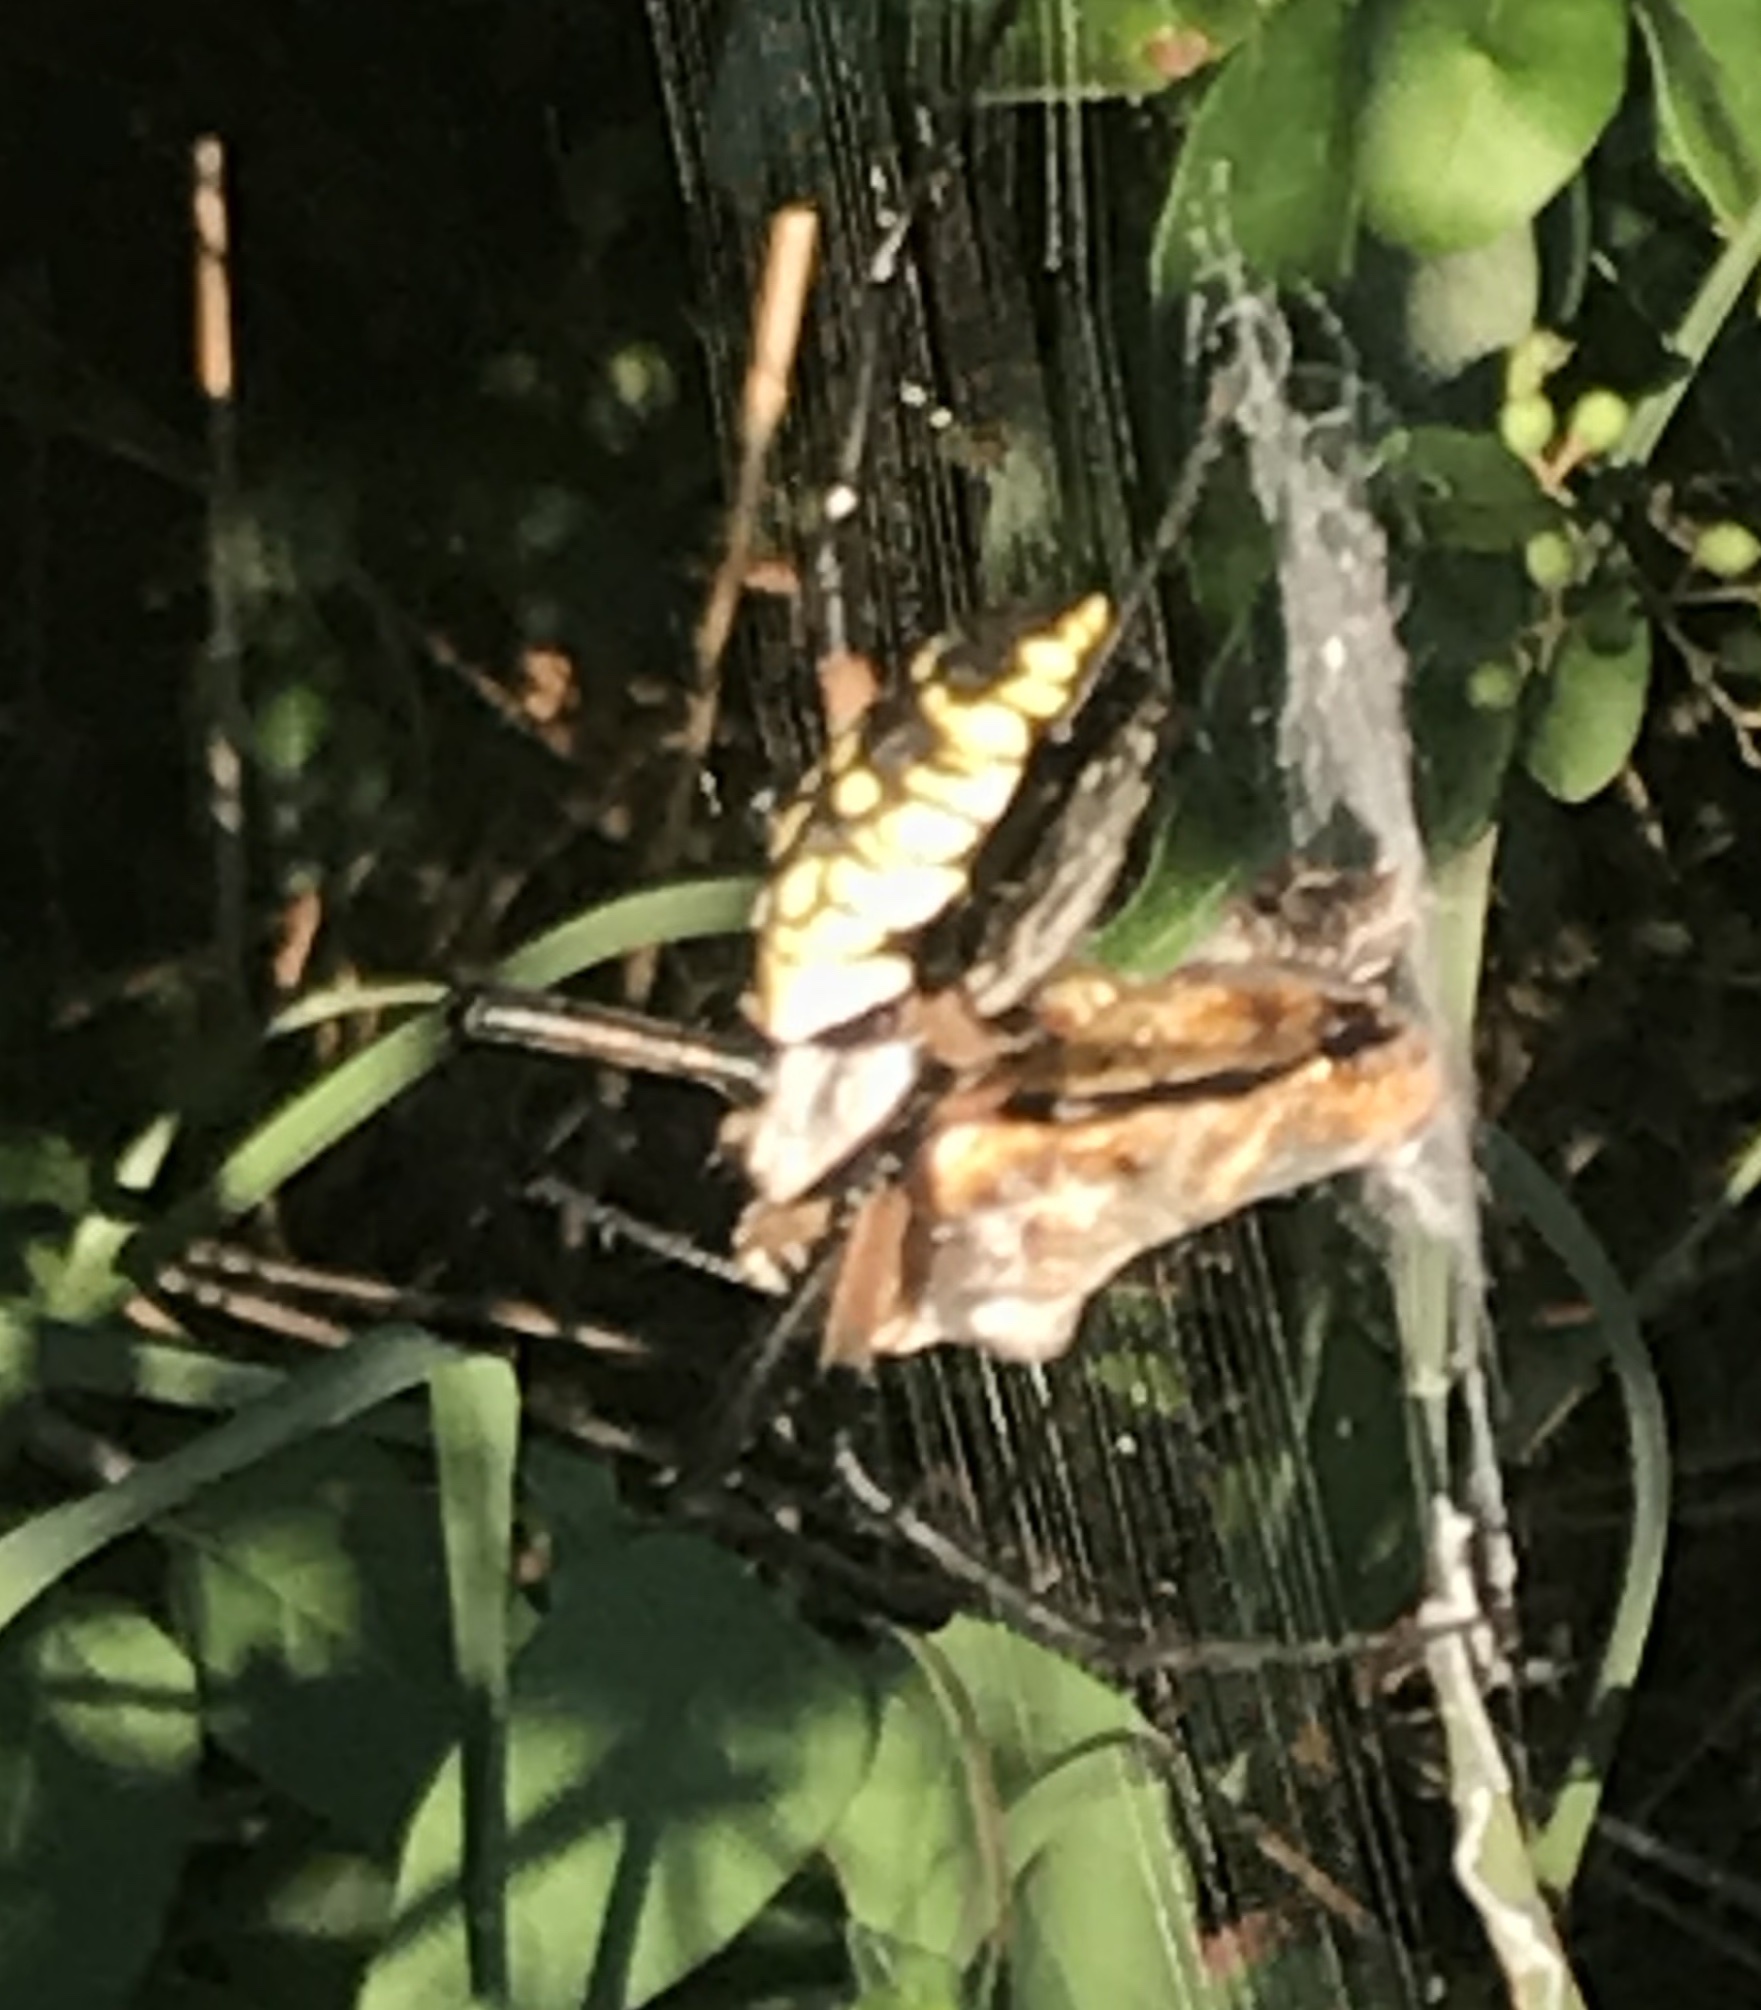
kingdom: Animalia
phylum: Arthropoda
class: Arachnida
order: Araneae
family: Araneidae
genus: Argiope
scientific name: Argiope aurantia
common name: Orb weavers
